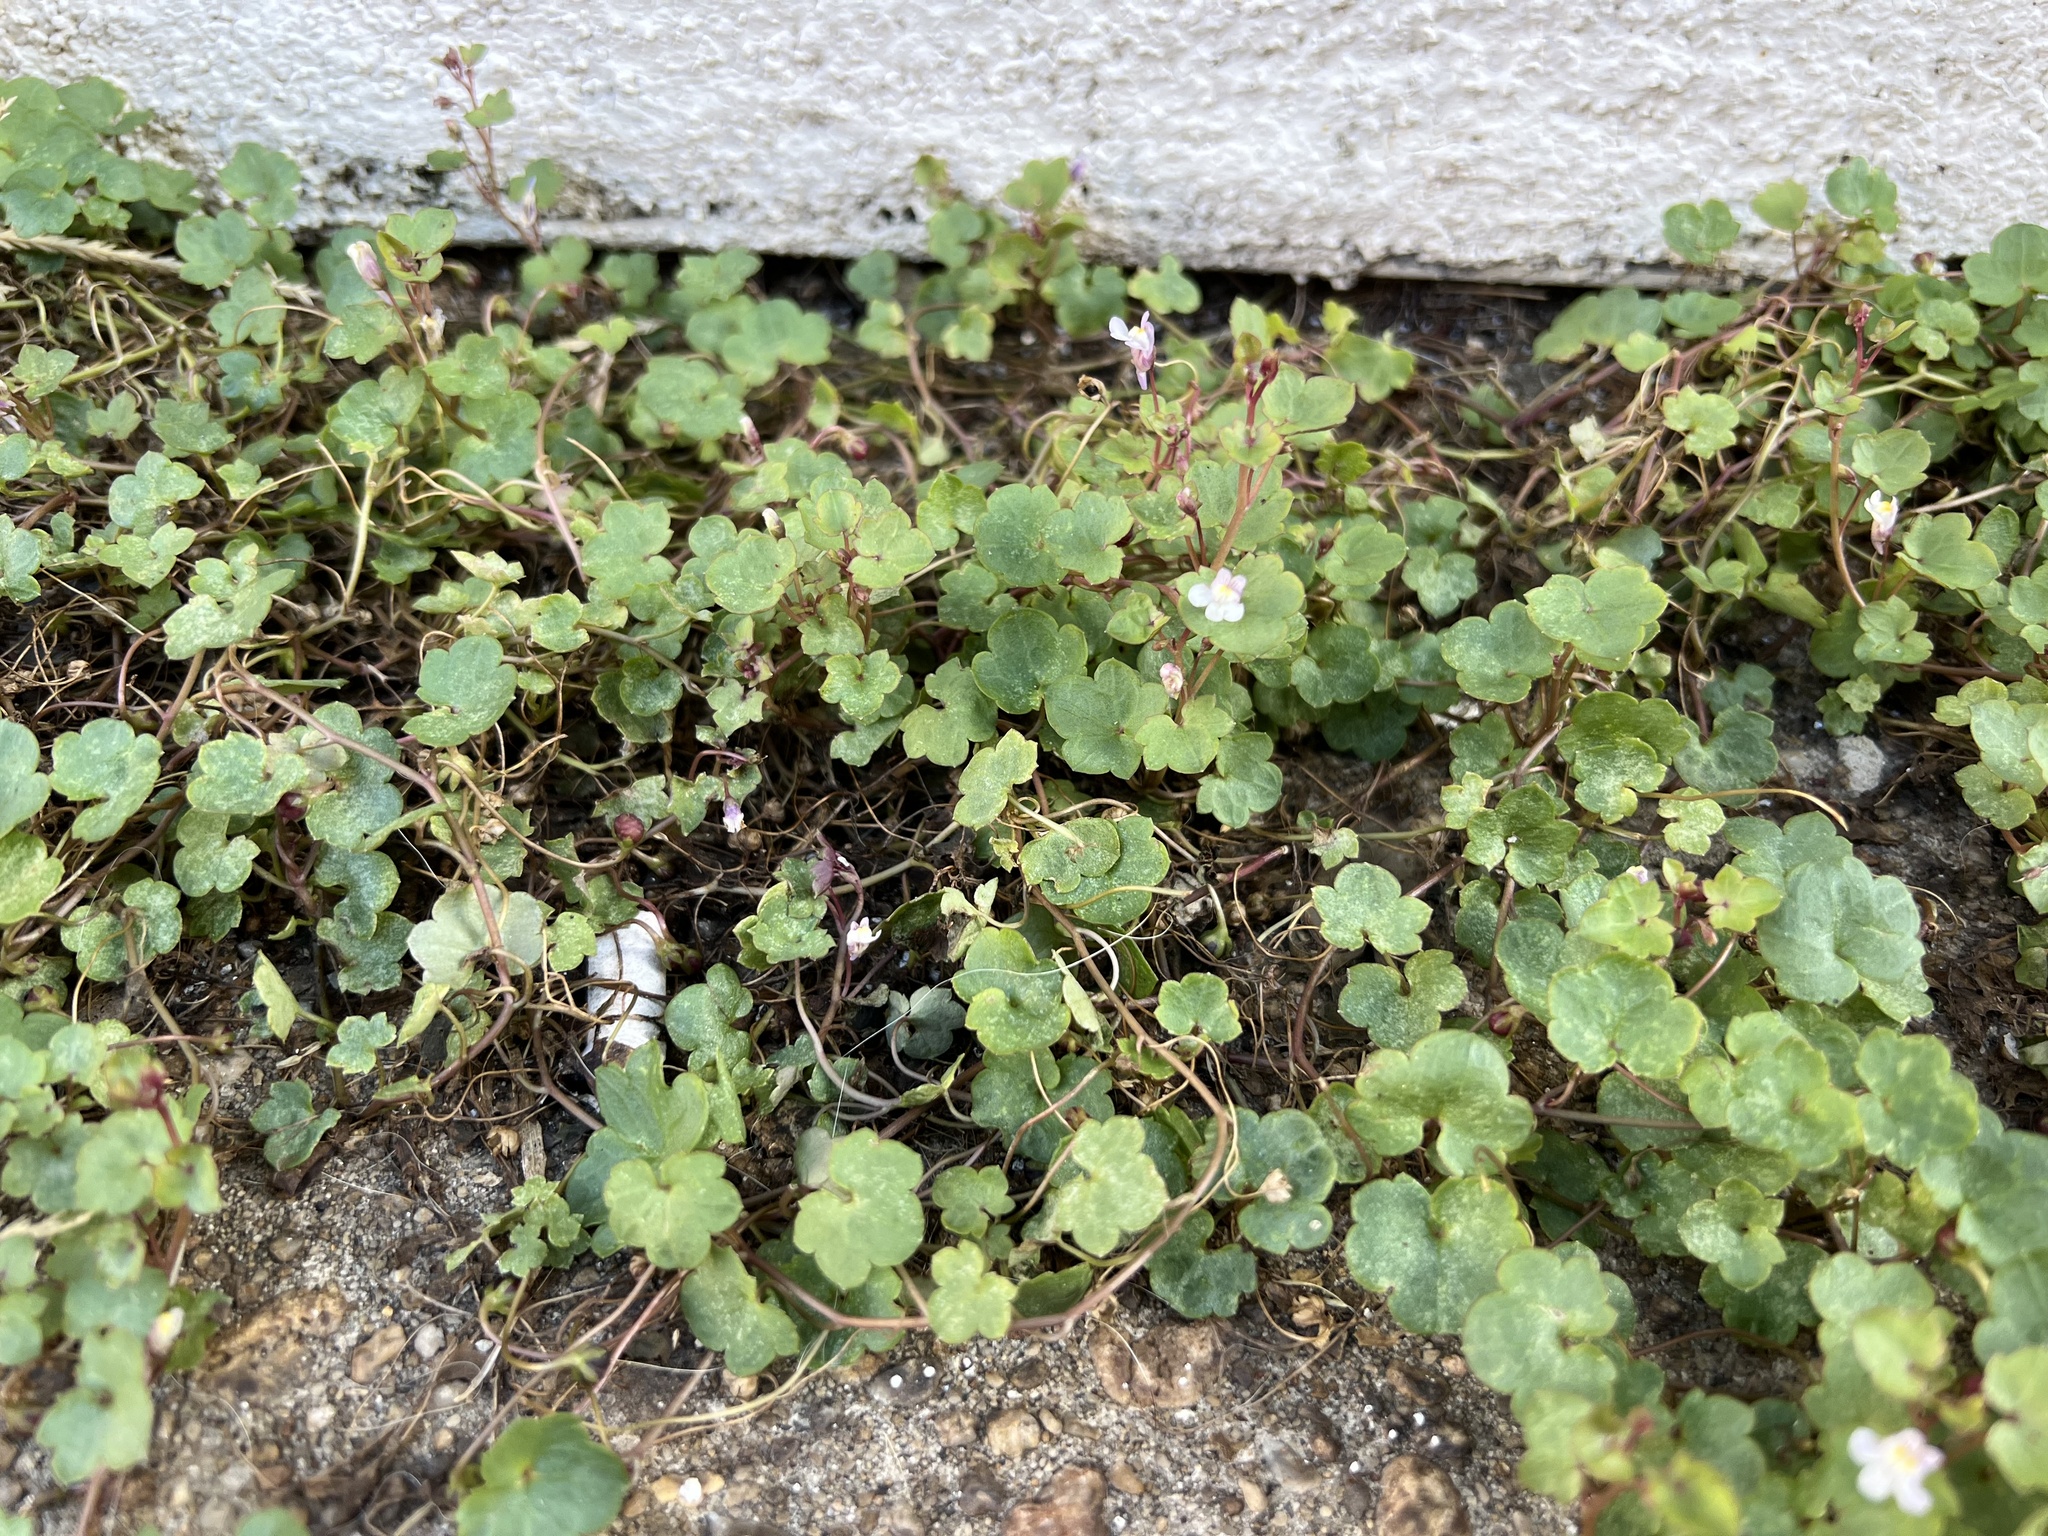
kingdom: Plantae
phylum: Tracheophyta
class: Magnoliopsida
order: Lamiales
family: Plantaginaceae
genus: Cymbalaria
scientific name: Cymbalaria muralis
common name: Ivy-leaved toadflax
